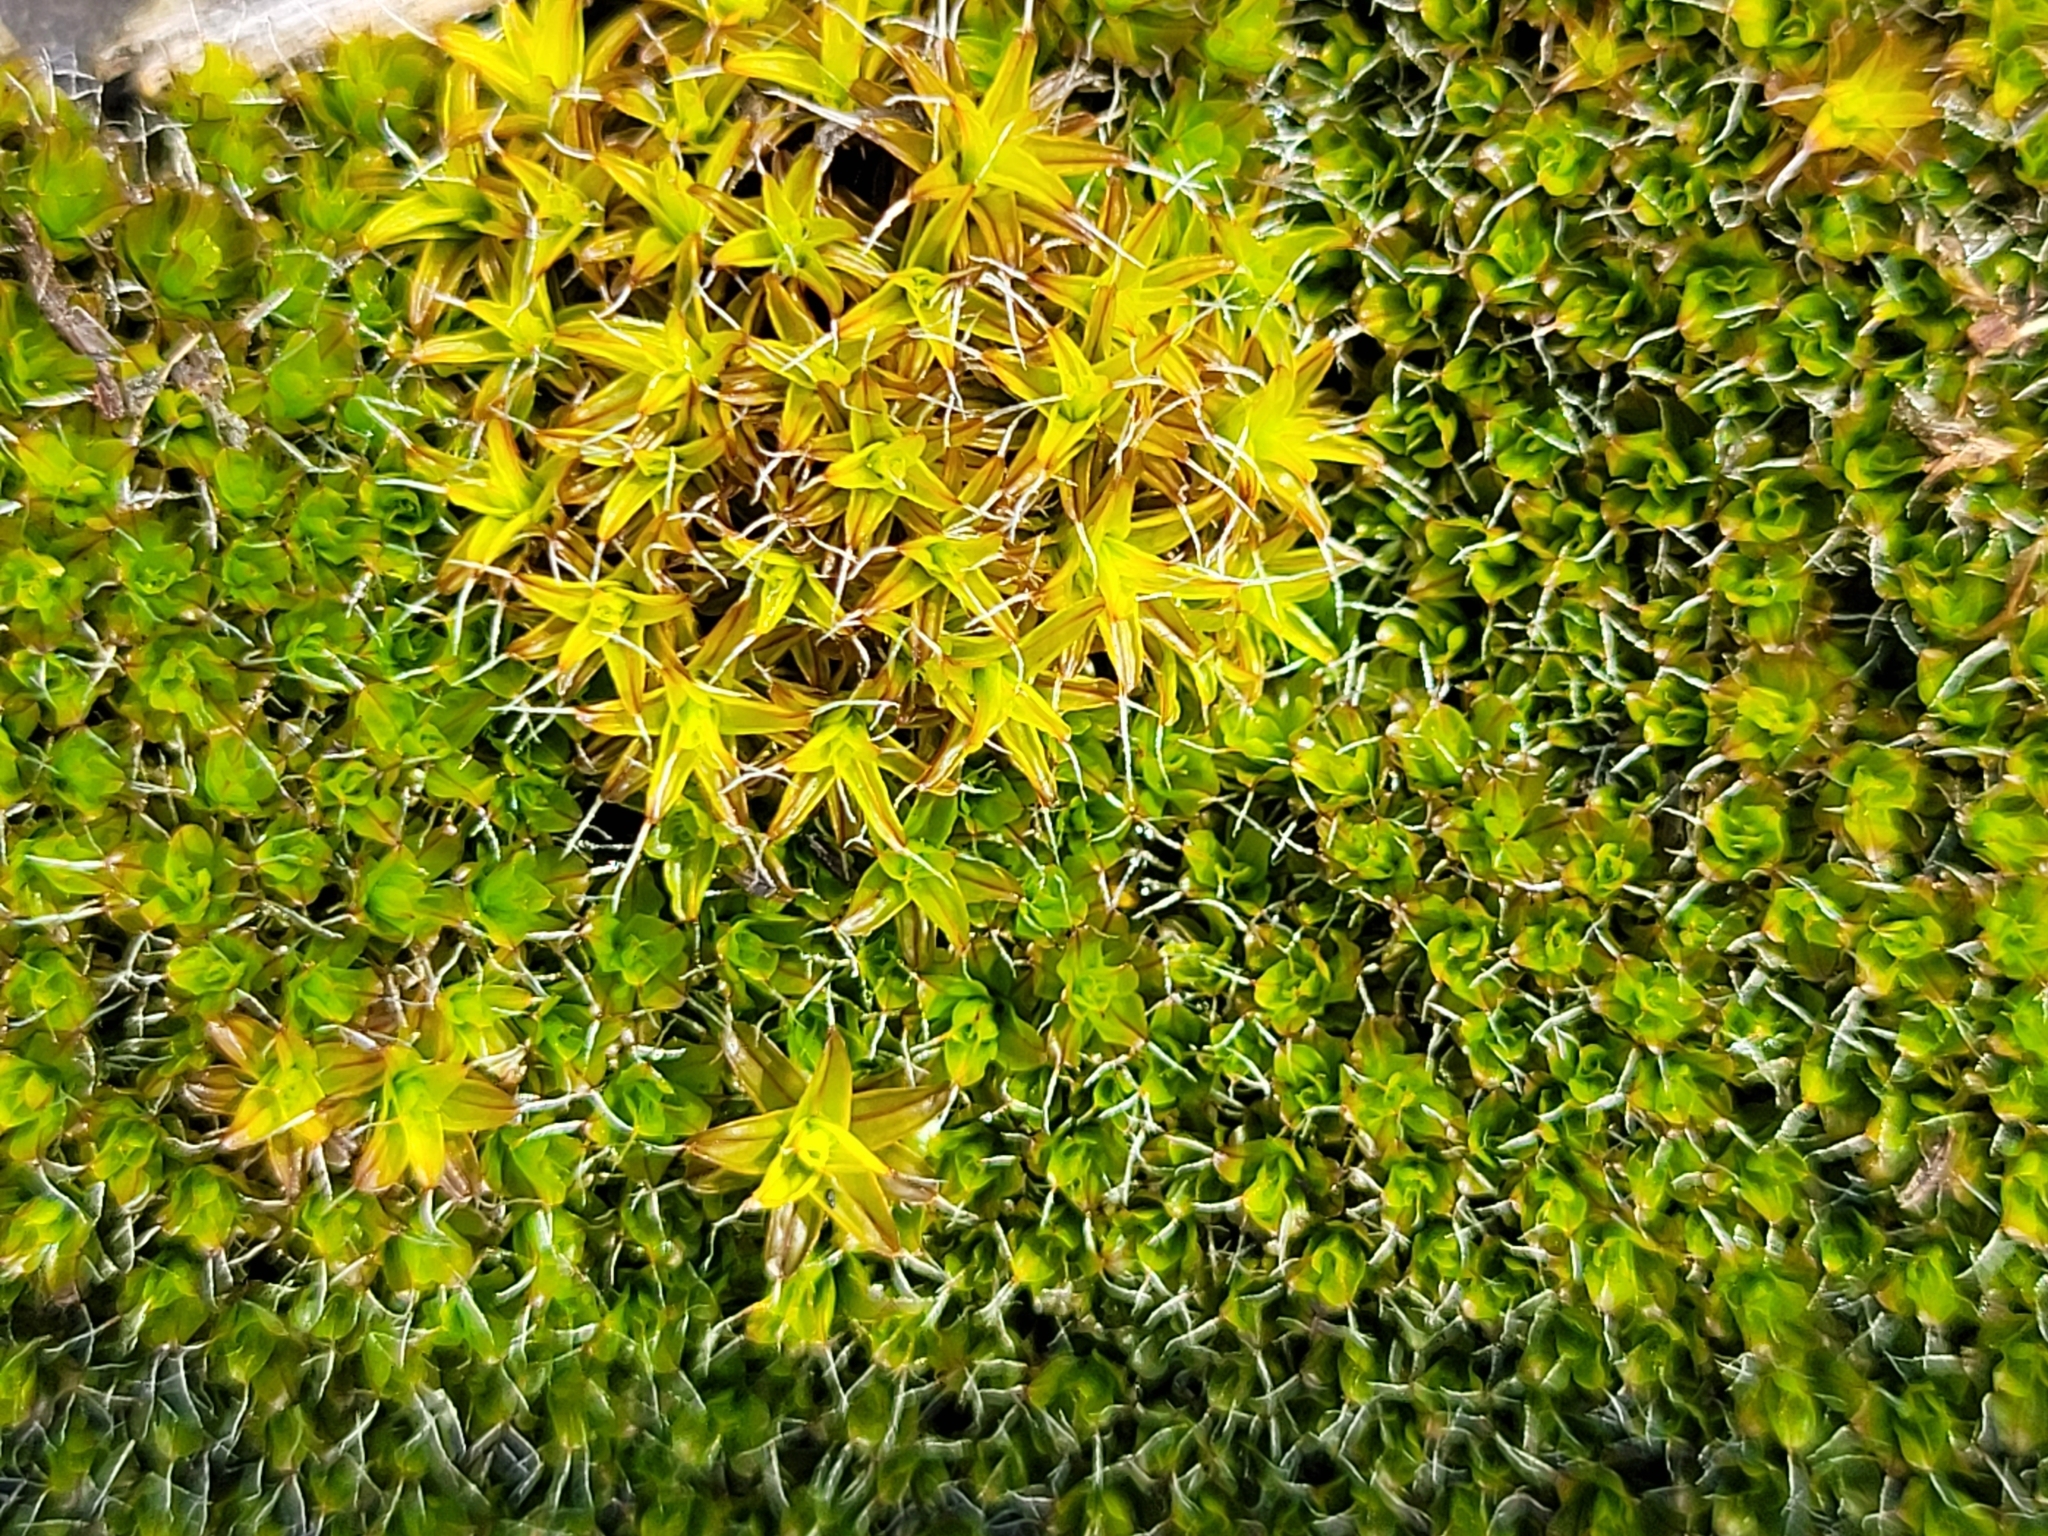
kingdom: Plantae
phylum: Bryophyta
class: Bryopsida
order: Pottiales
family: Pottiaceae
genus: Syntrichia
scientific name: Syntrichia ruralis
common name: Sidewalk screw moss
